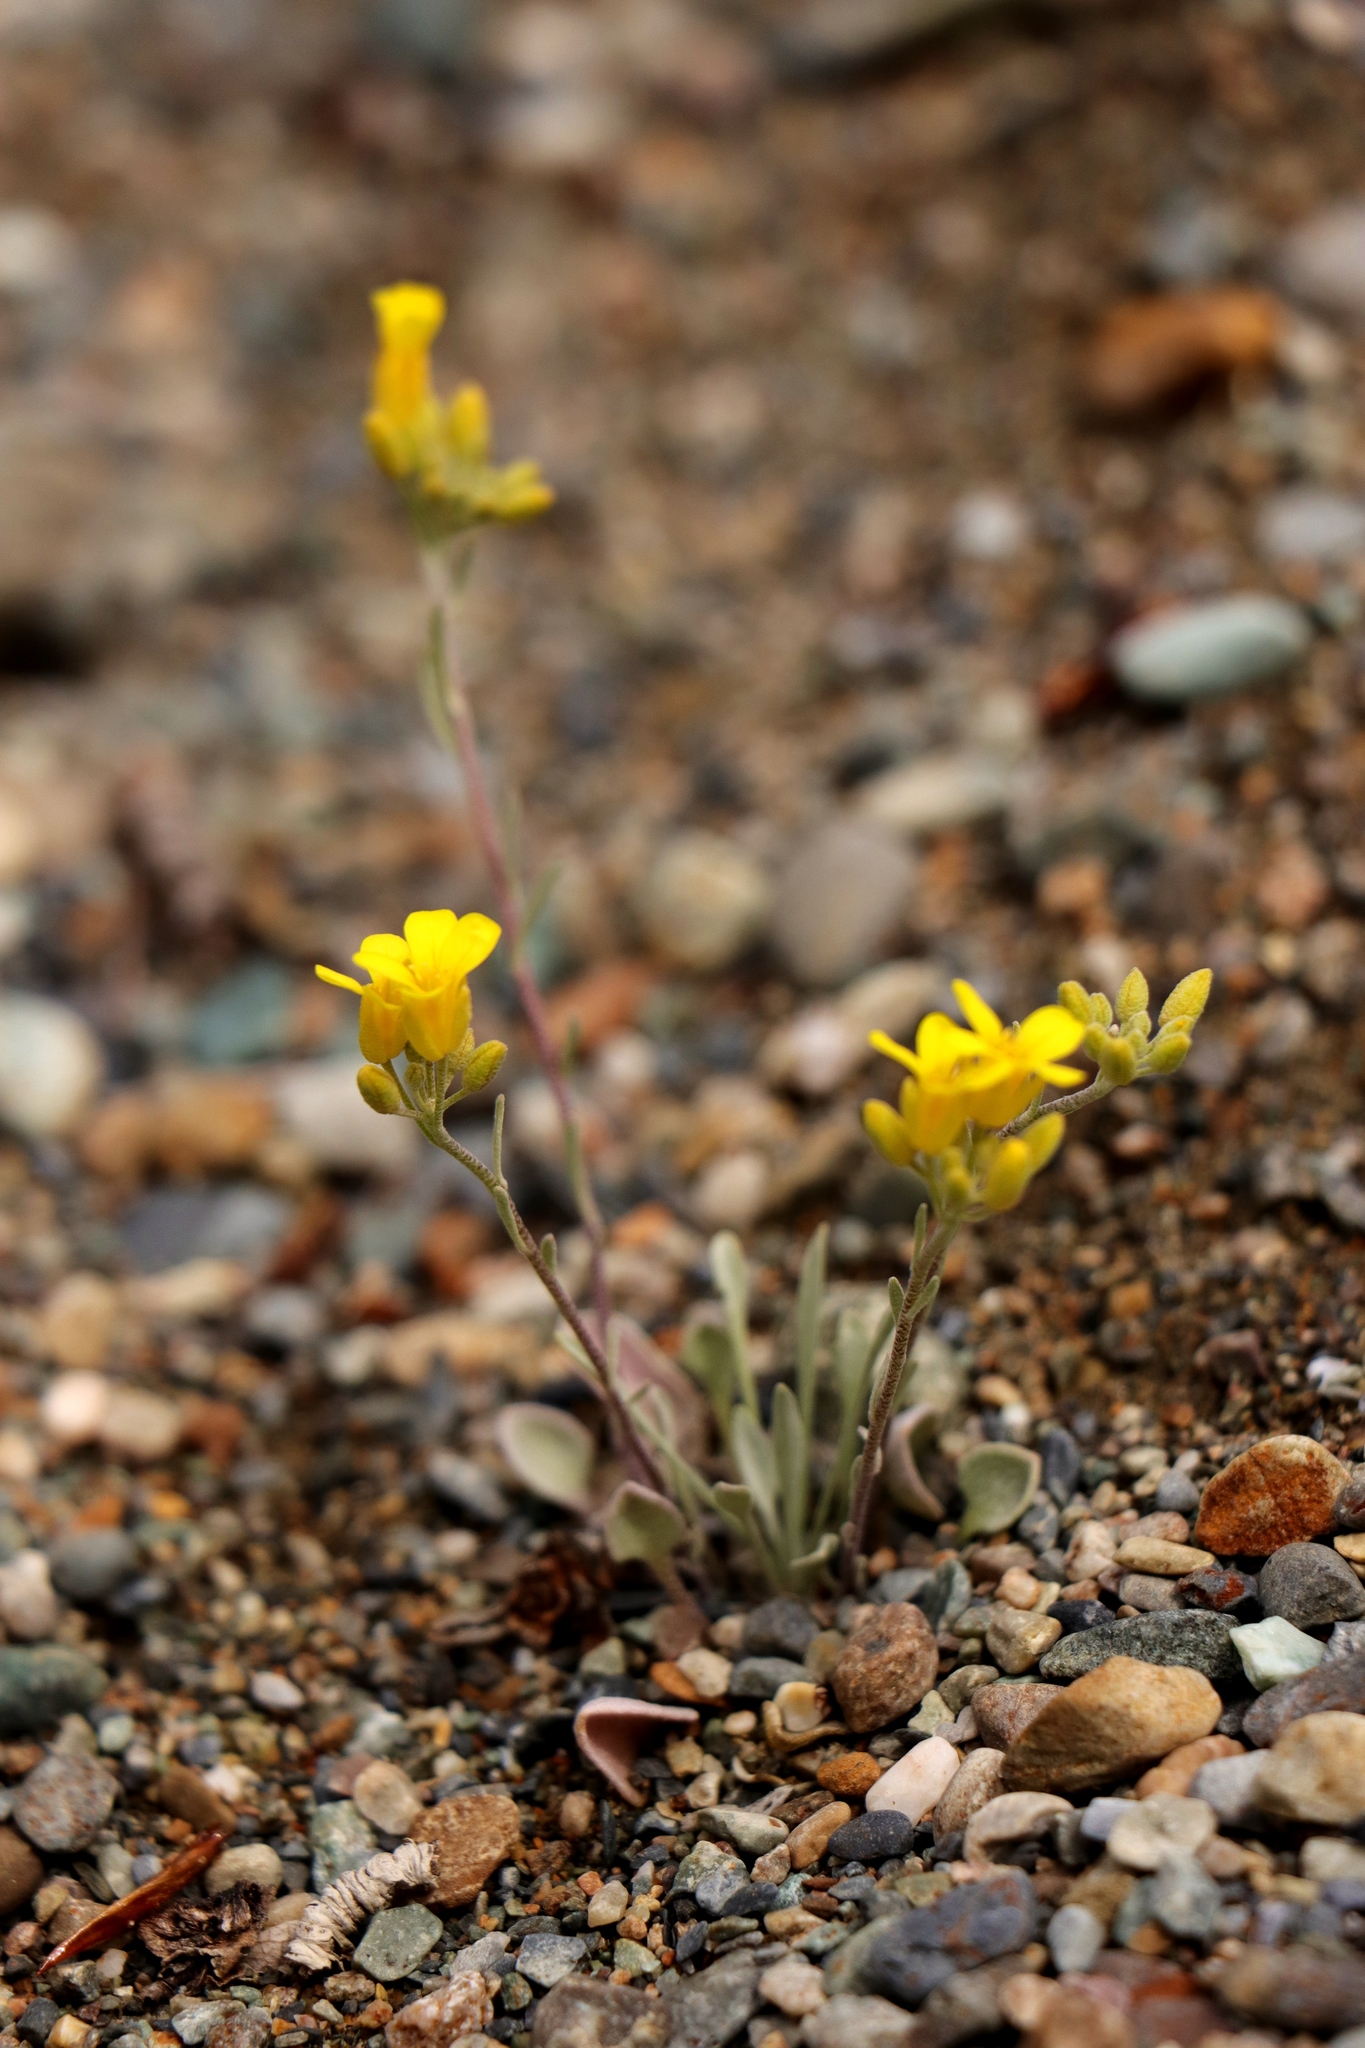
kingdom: Plantae
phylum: Tracheophyta
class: Magnoliopsida
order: Brassicales
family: Brassicaceae
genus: Physaria
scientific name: Physaria douglasii
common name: Douglas's bladderpod
